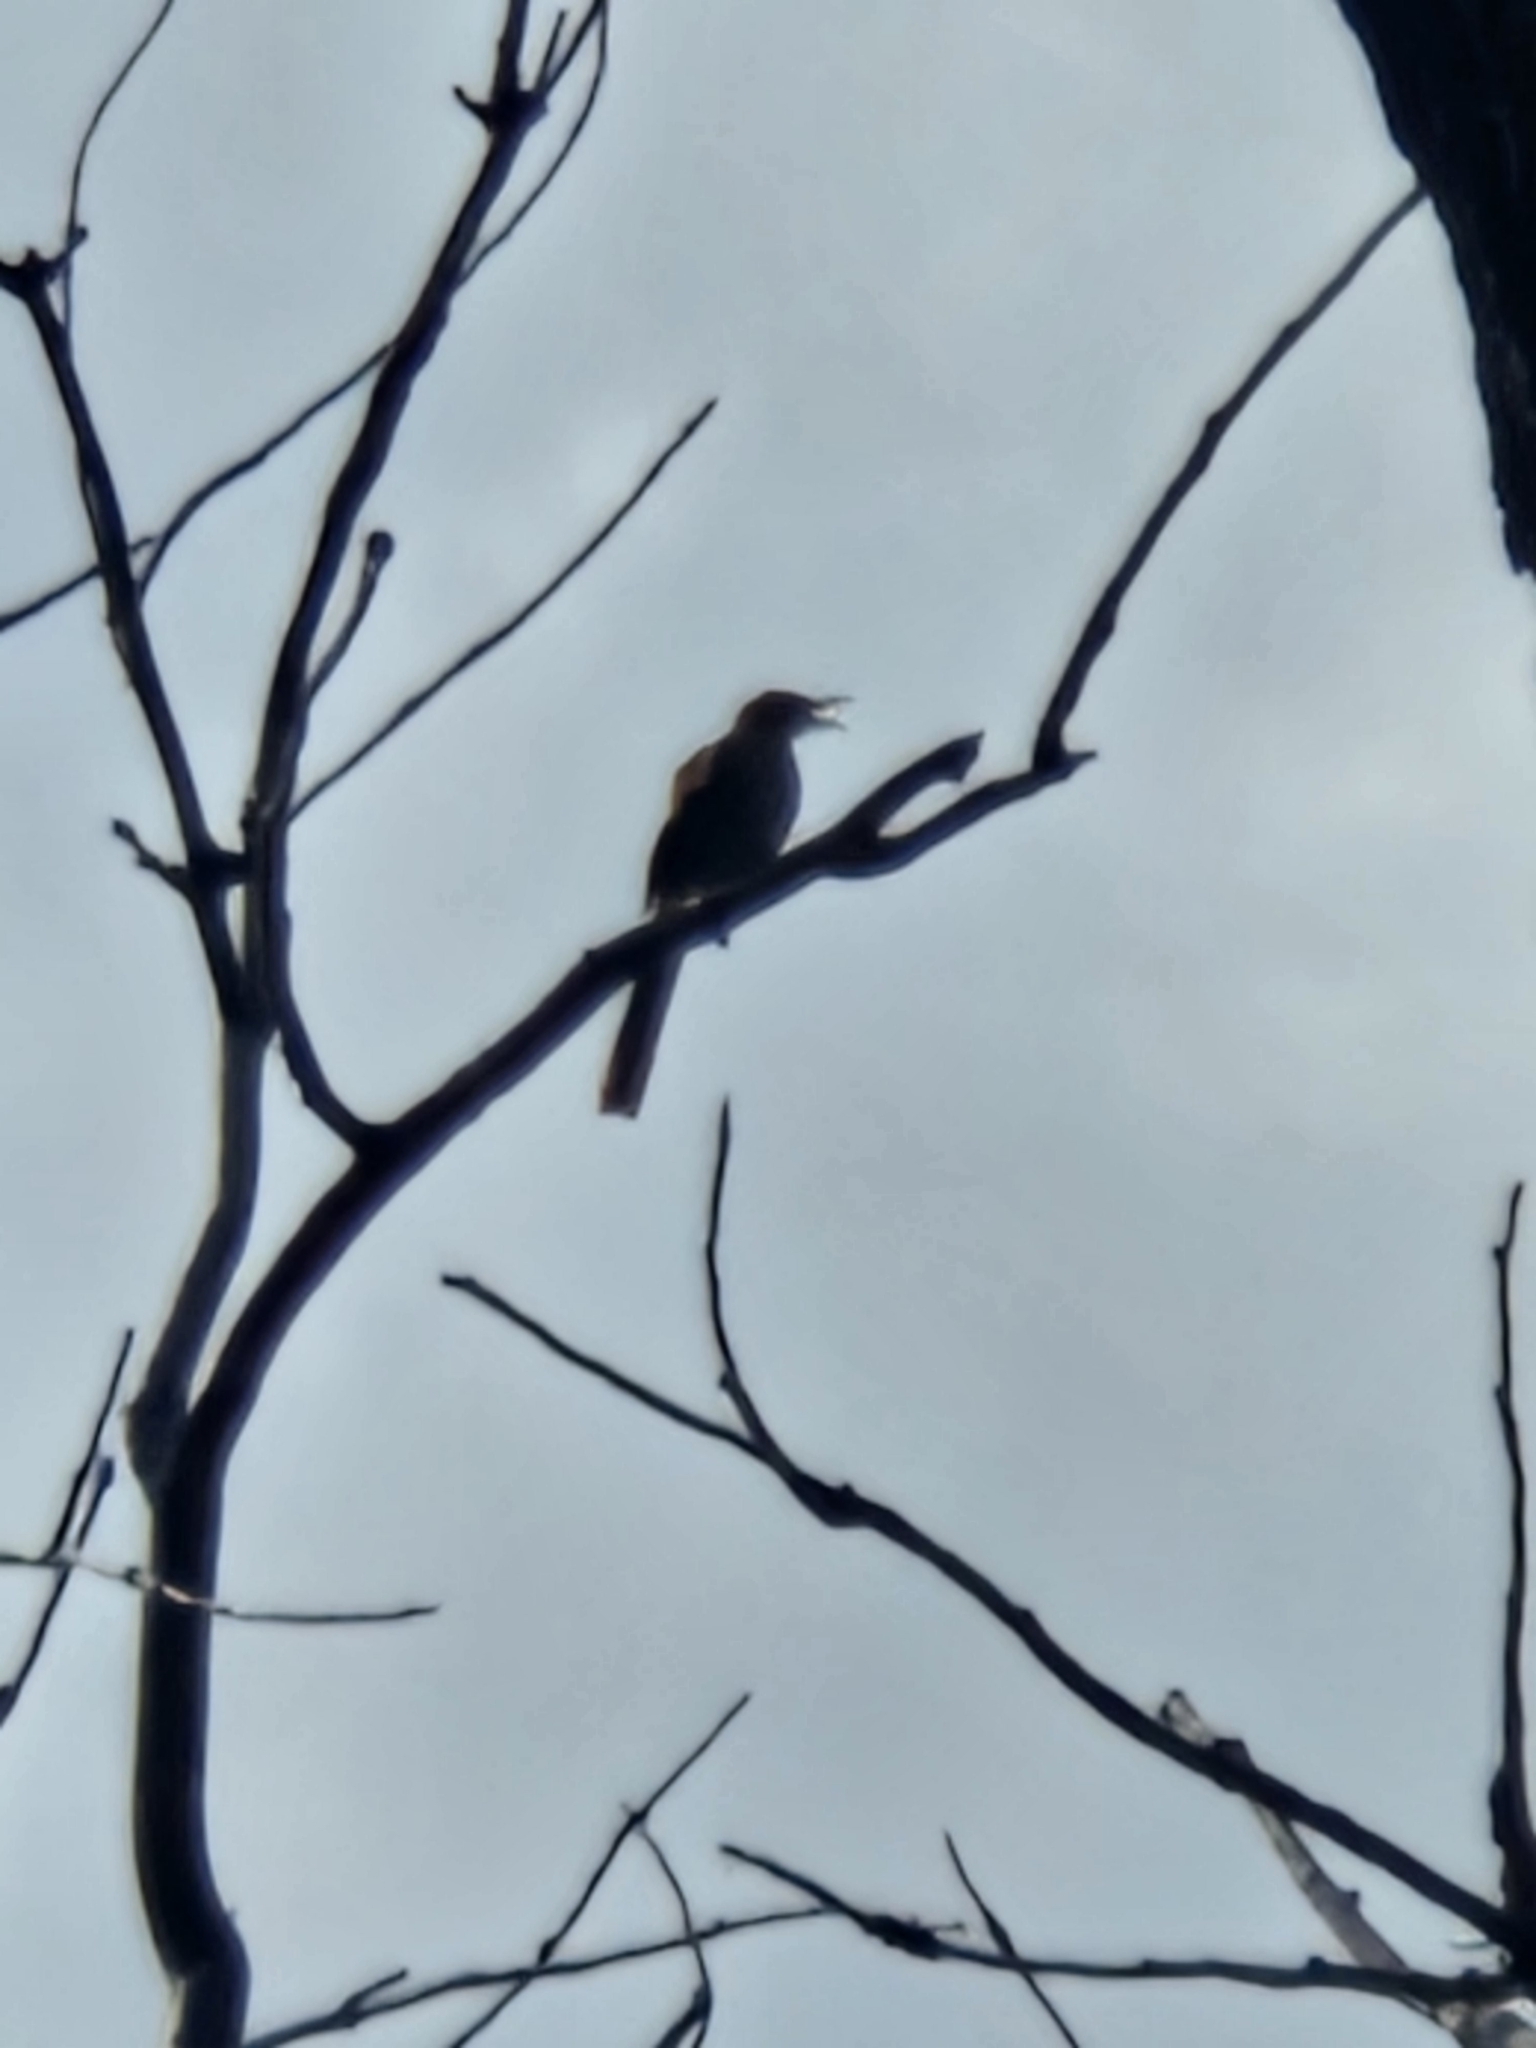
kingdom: Animalia
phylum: Chordata
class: Aves
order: Passeriformes
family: Mimidae
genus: Toxostoma
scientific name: Toxostoma rufum
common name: Brown thrasher
